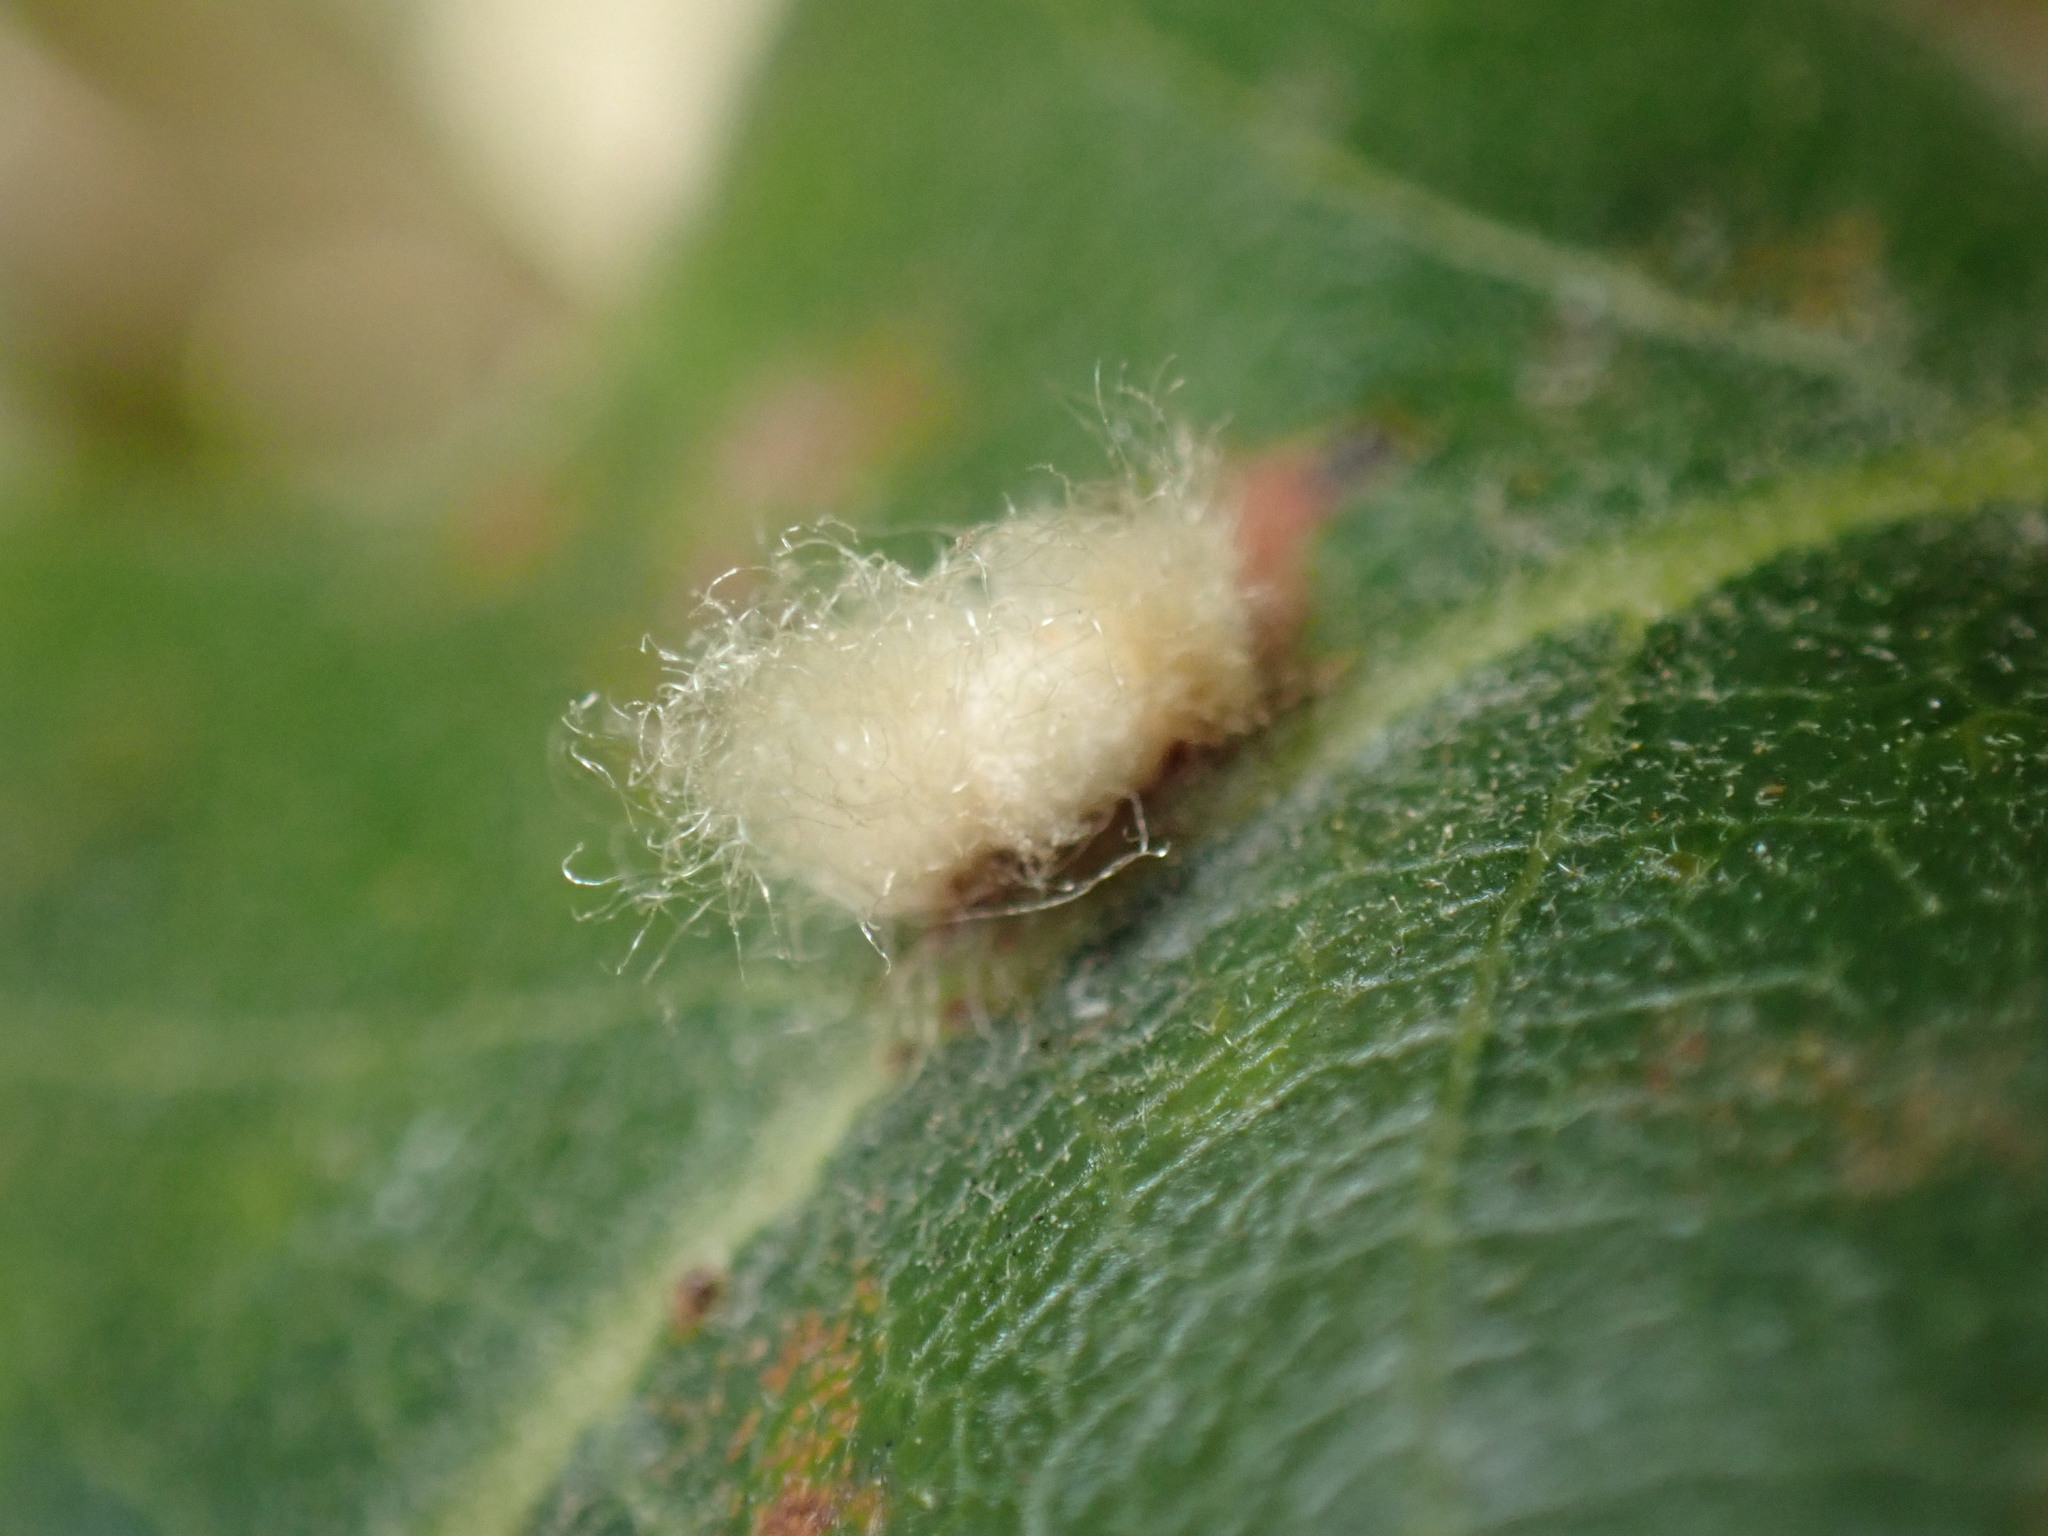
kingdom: Animalia
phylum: Arthropoda
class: Insecta
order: Hymenoptera
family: Cynipidae
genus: Andricus
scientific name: Andricus Druon fullawayi
